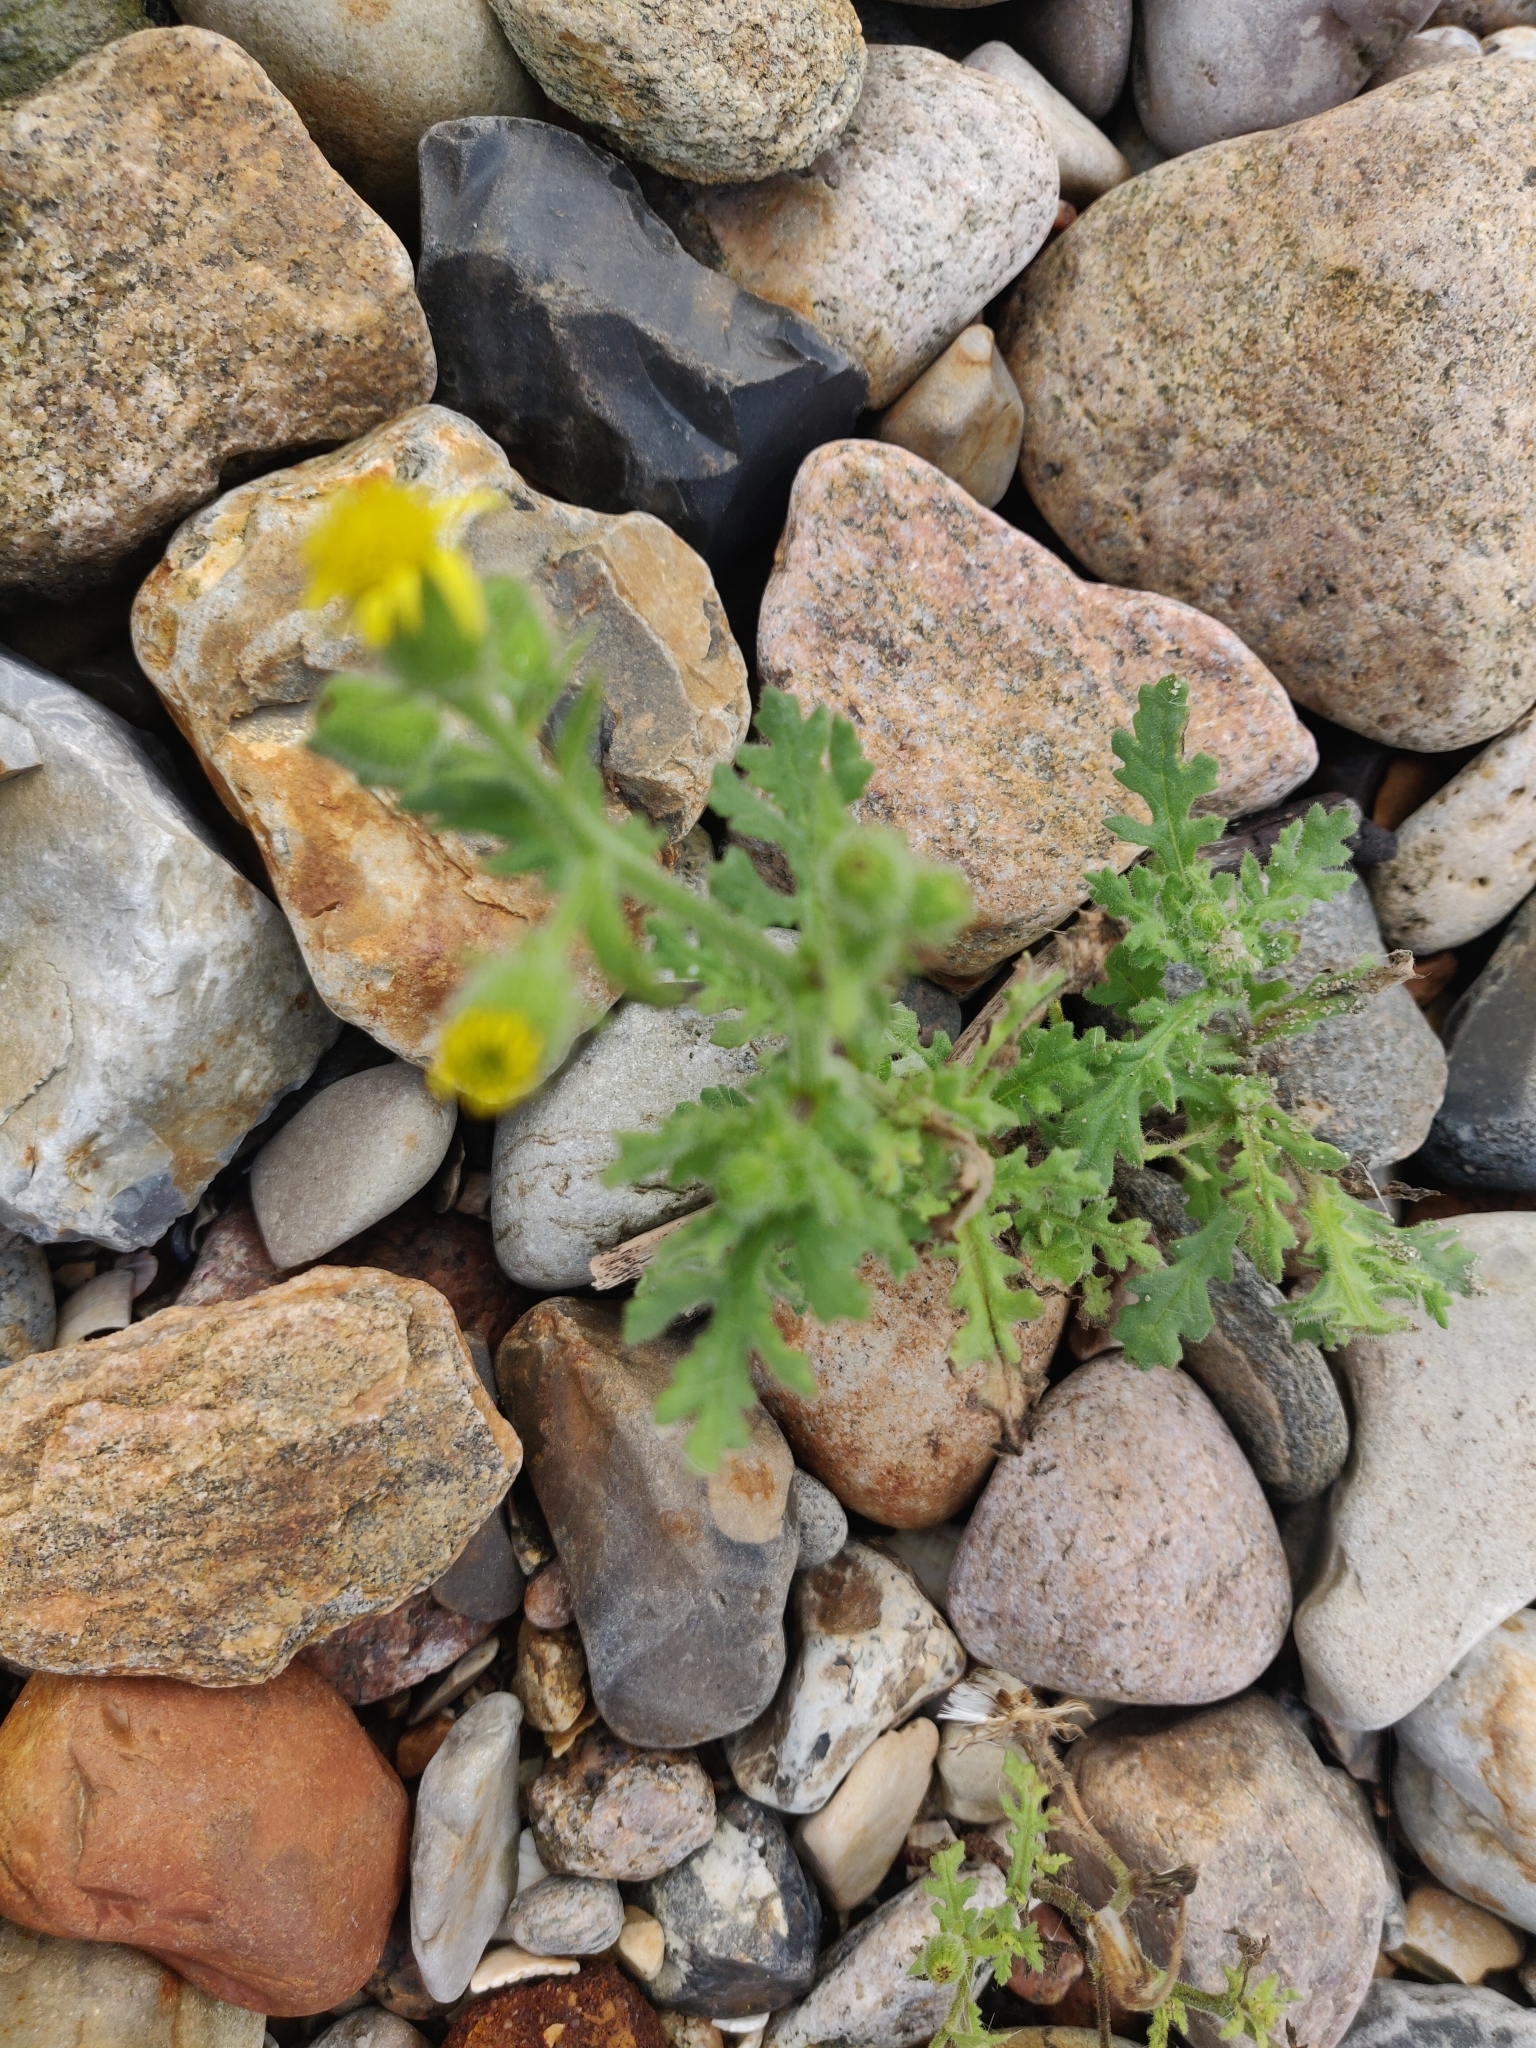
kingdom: Plantae
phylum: Tracheophyta
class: Magnoliopsida
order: Asterales
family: Asteraceae
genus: Senecio
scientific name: Senecio viscosus
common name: Sticky groundsel
